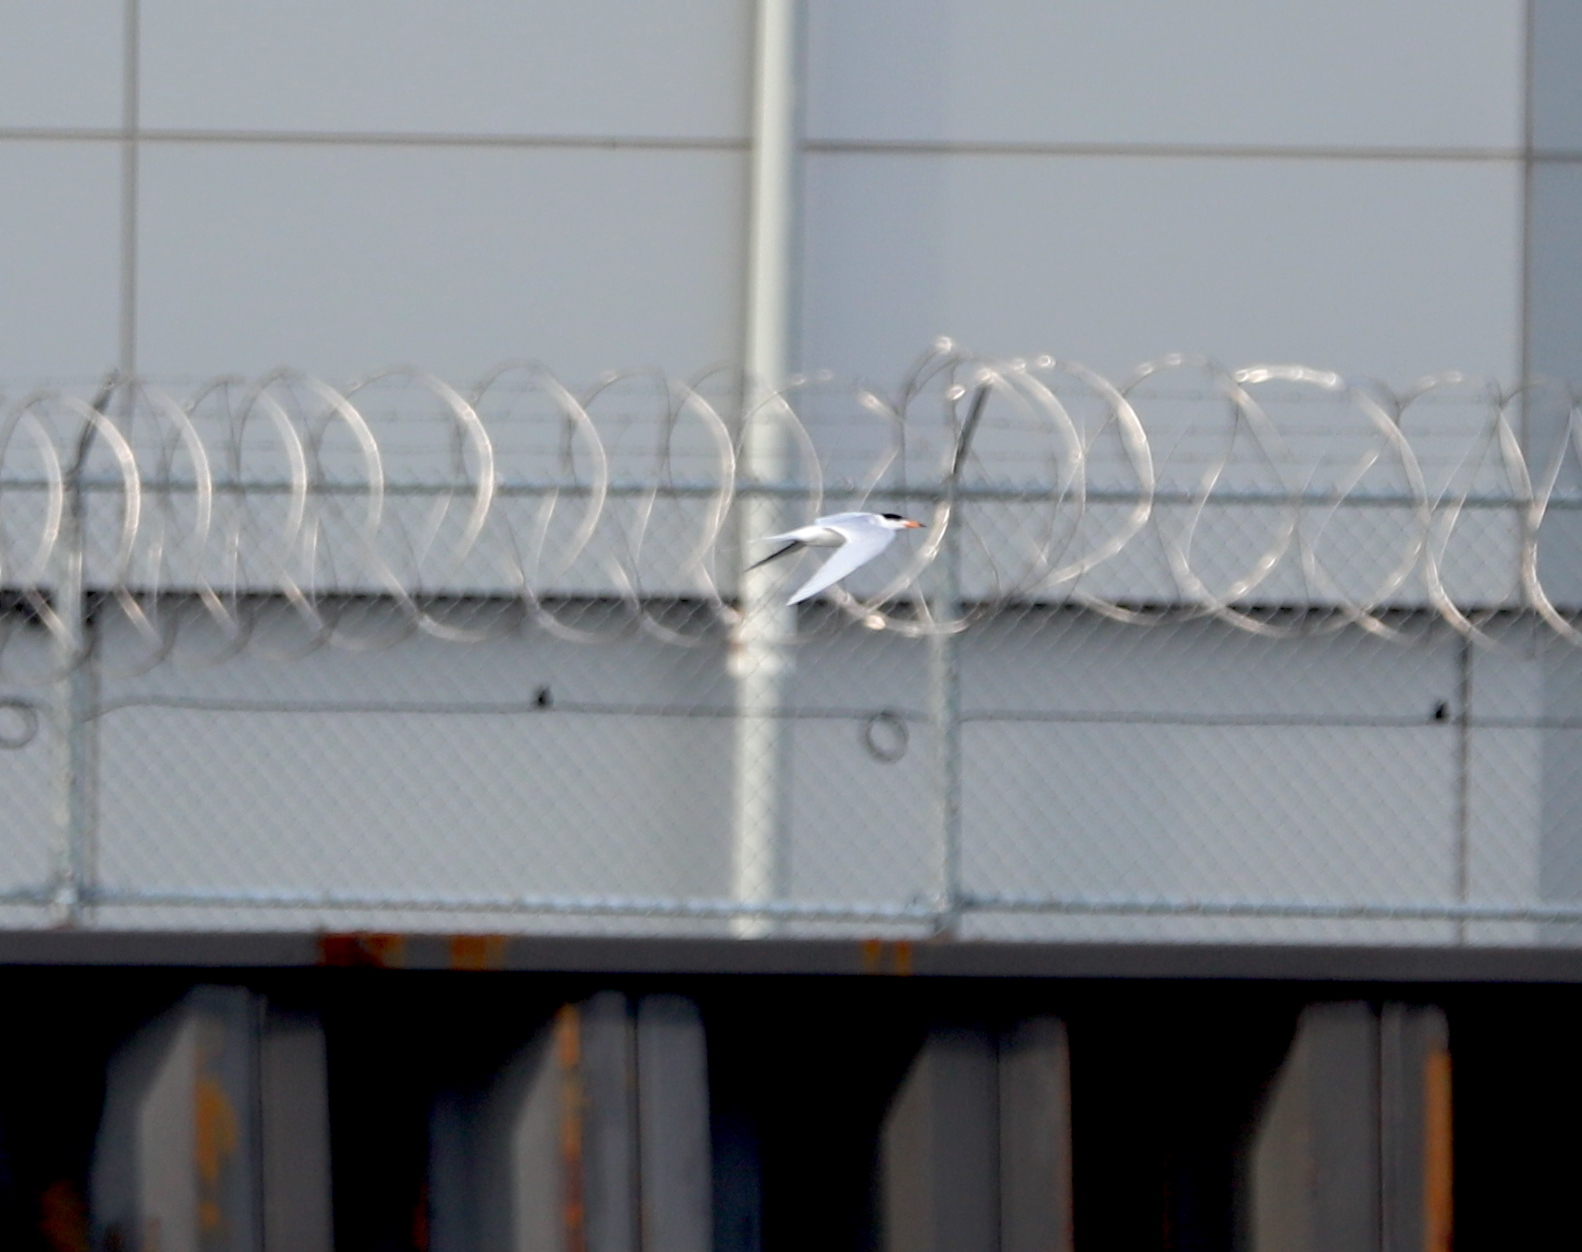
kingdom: Animalia
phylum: Chordata
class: Aves
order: Charadriiformes
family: Laridae
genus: Sterna
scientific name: Sterna hirundo
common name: Common tern
